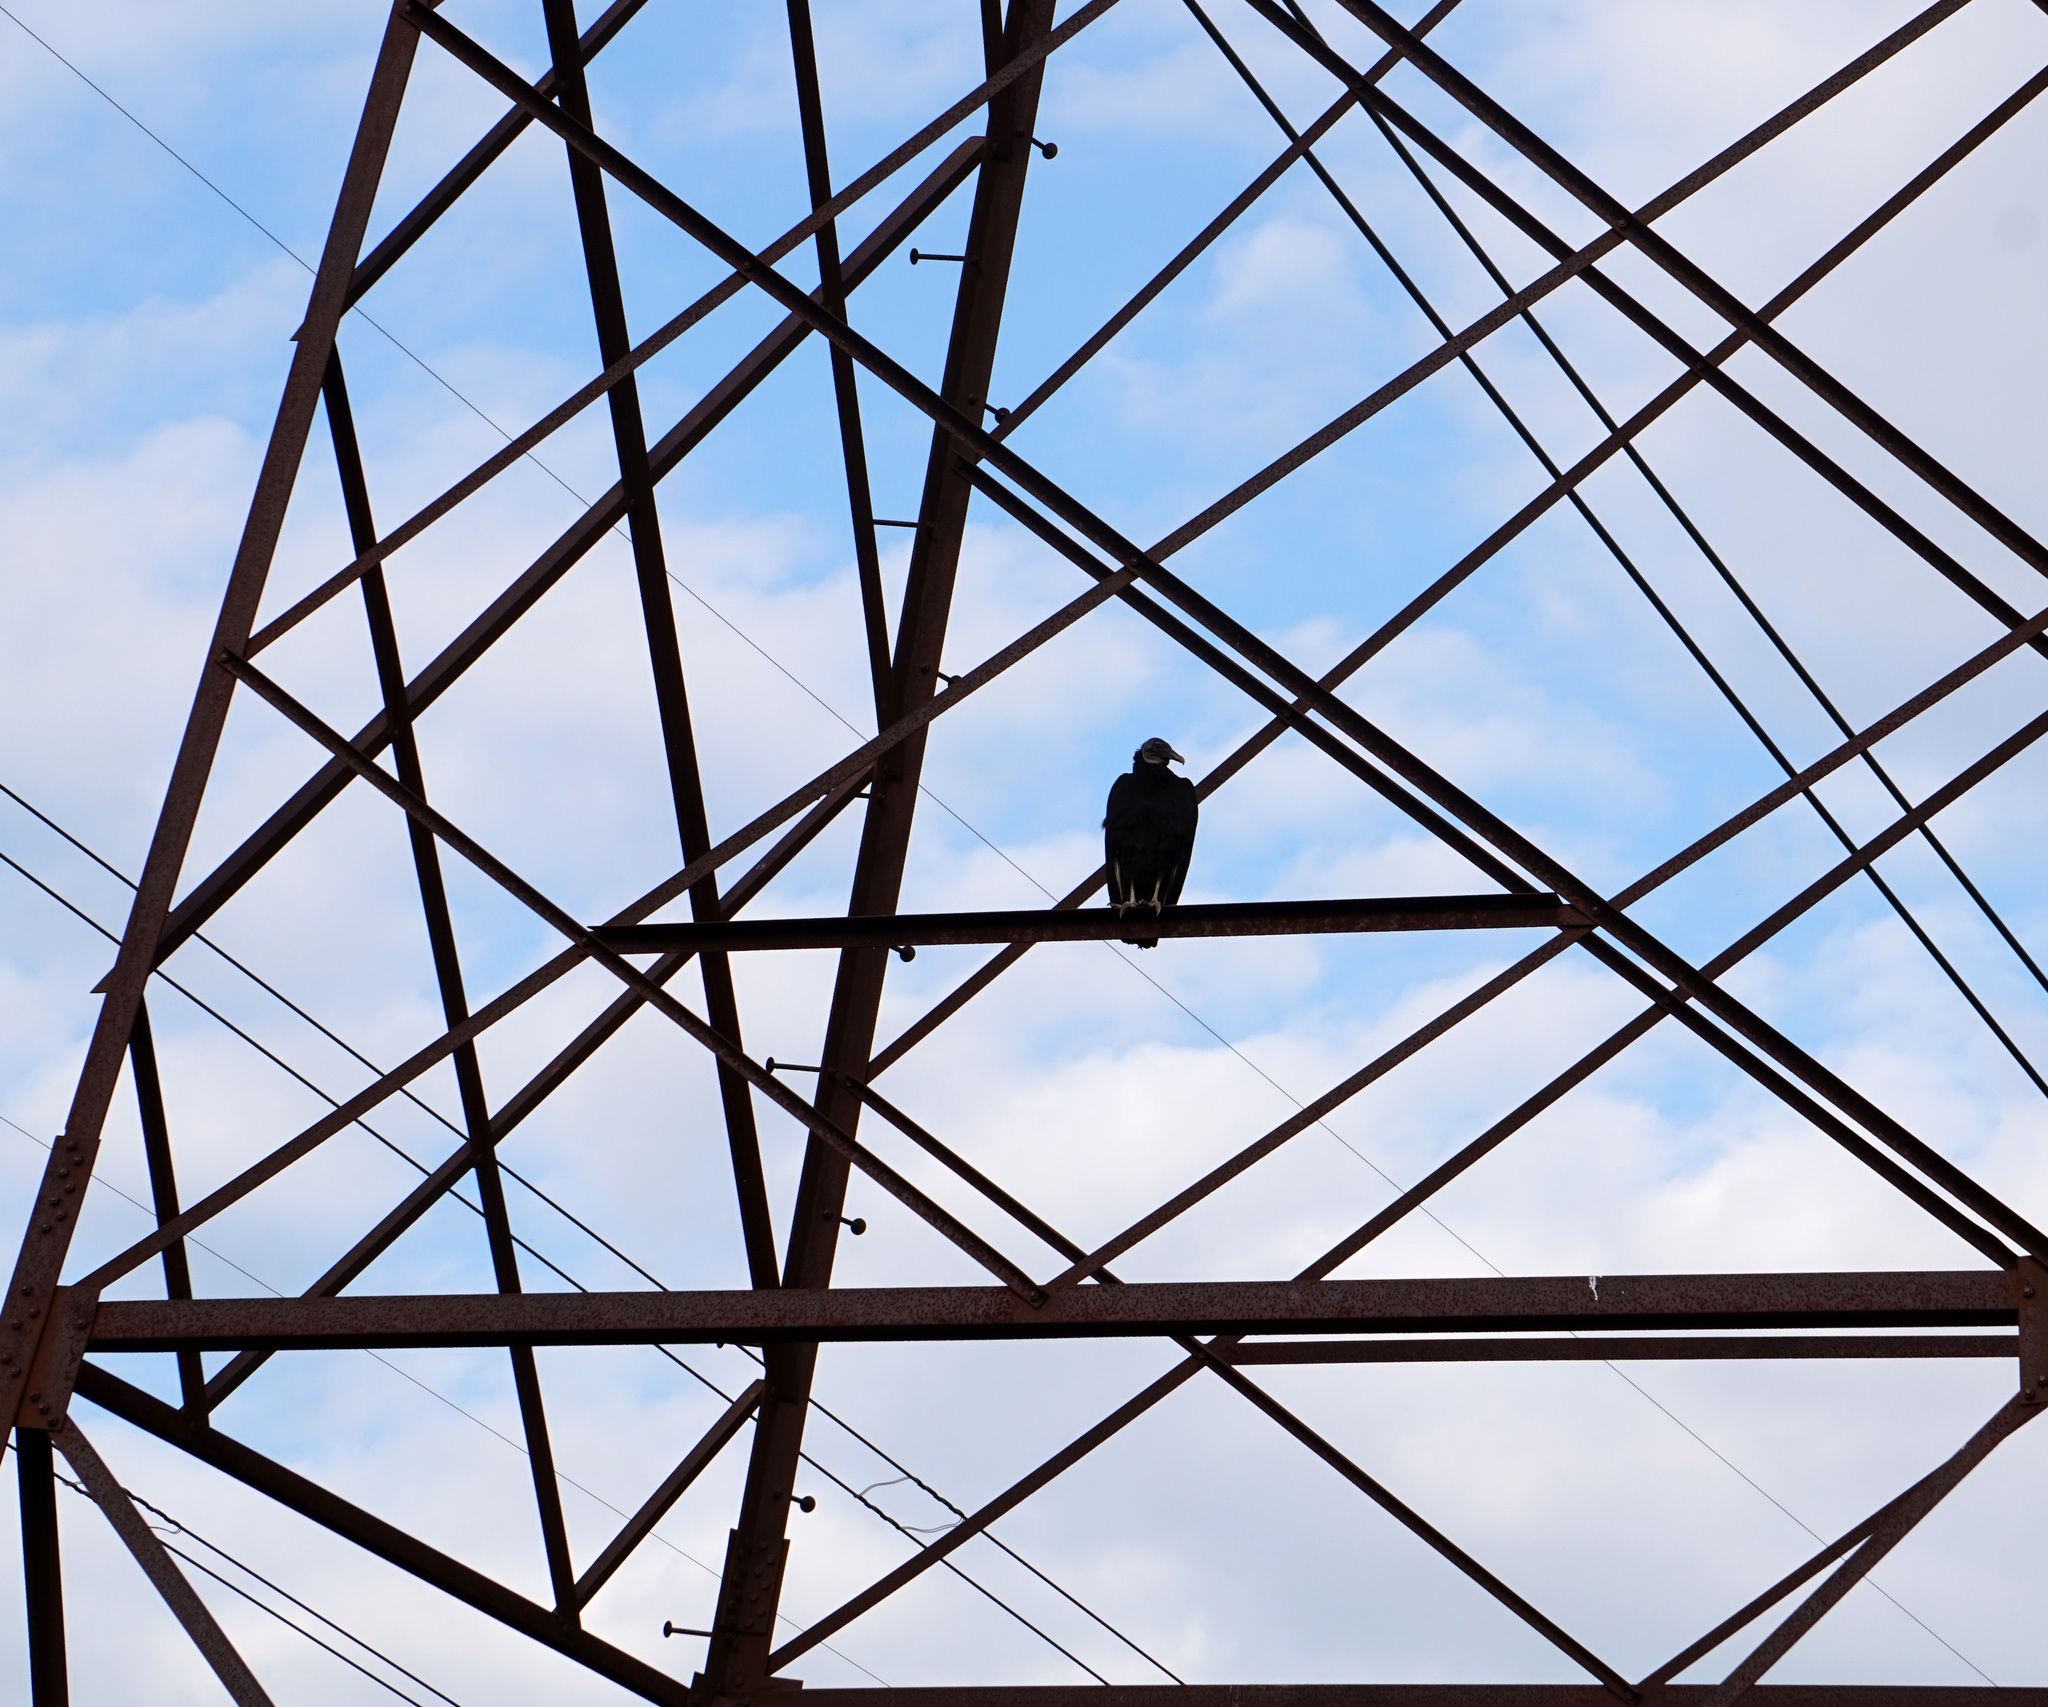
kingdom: Animalia
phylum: Chordata
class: Aves
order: Accipitriformes
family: Cathartidae
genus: Coragyps
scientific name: Coragyps atratus
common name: Black vulture
